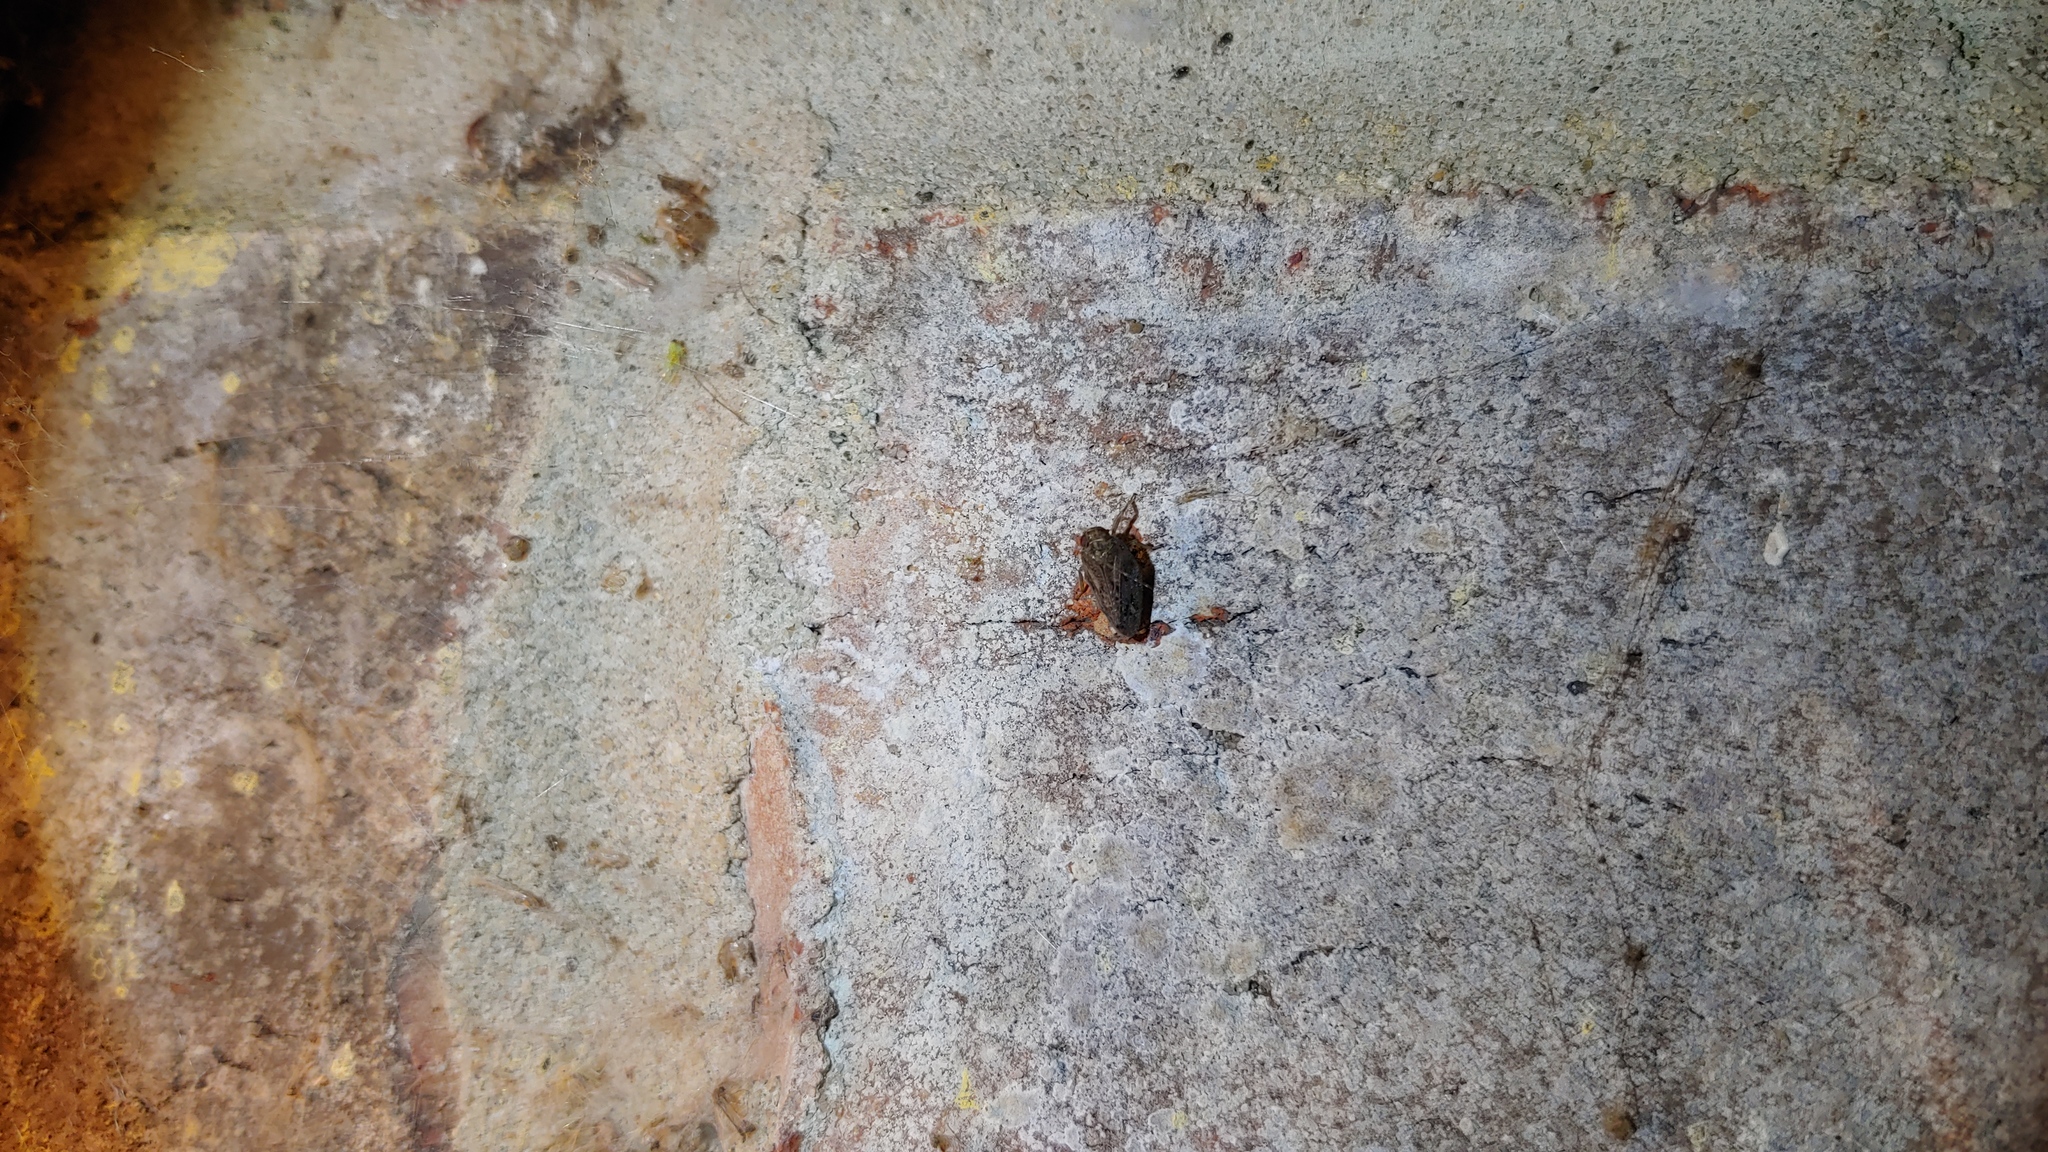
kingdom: Animalia
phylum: Arthropoda
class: Insecta
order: Hemiptera
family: Issidae
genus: Thionia
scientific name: Thionia bullata
